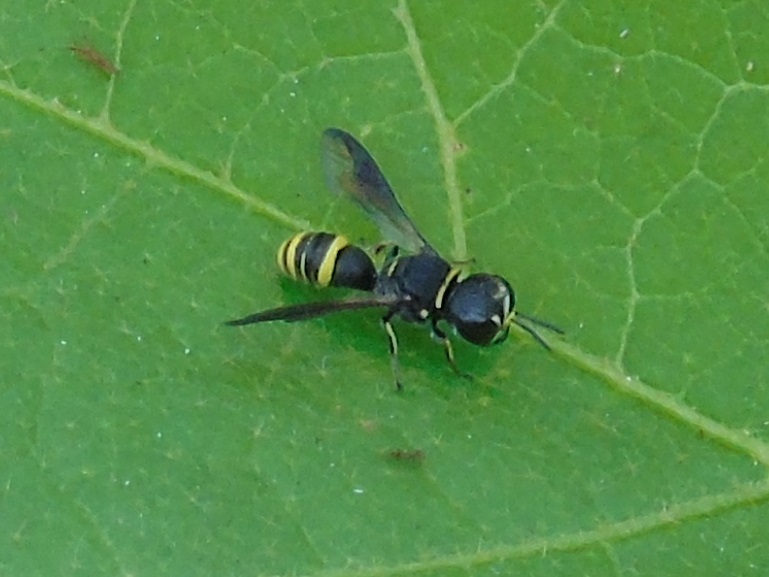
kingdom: Animalia
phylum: Arthropoda
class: Insecta
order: Hymenoptera
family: Crabronidae
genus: Ectemnius
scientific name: Ectemnius
